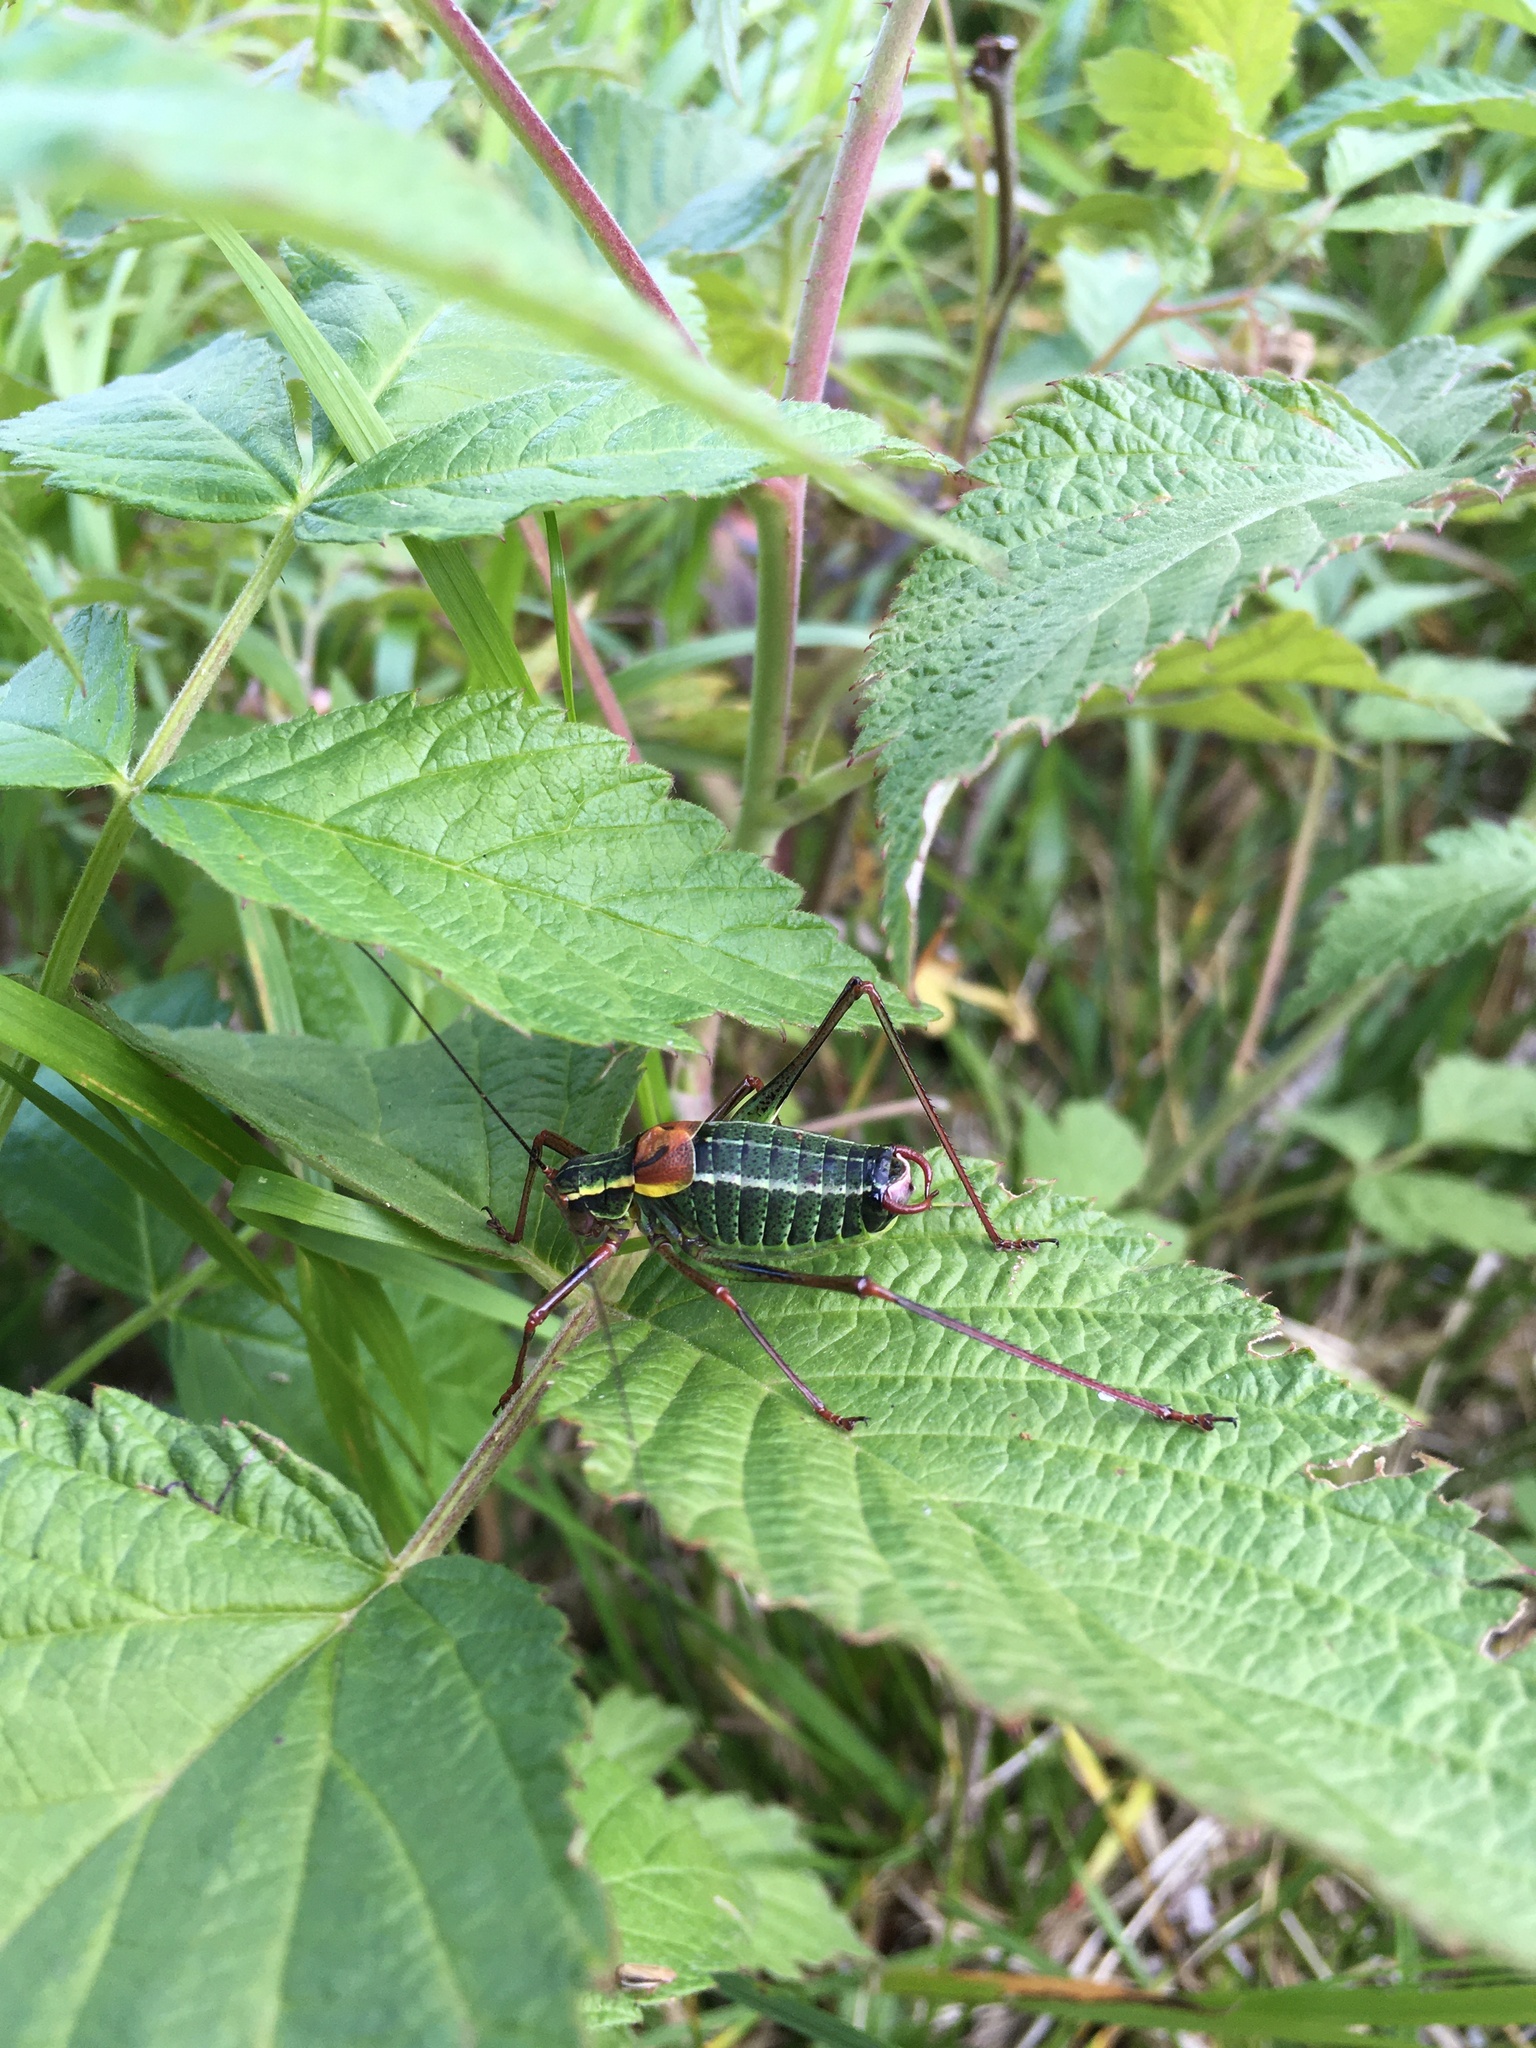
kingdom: Animalia
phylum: Arthropoda
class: Insecta
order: Orthoptera
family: Tettigoniidae
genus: Barbitistes
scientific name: Barbitistes obtusus
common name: Alpine saw bush-cricket
